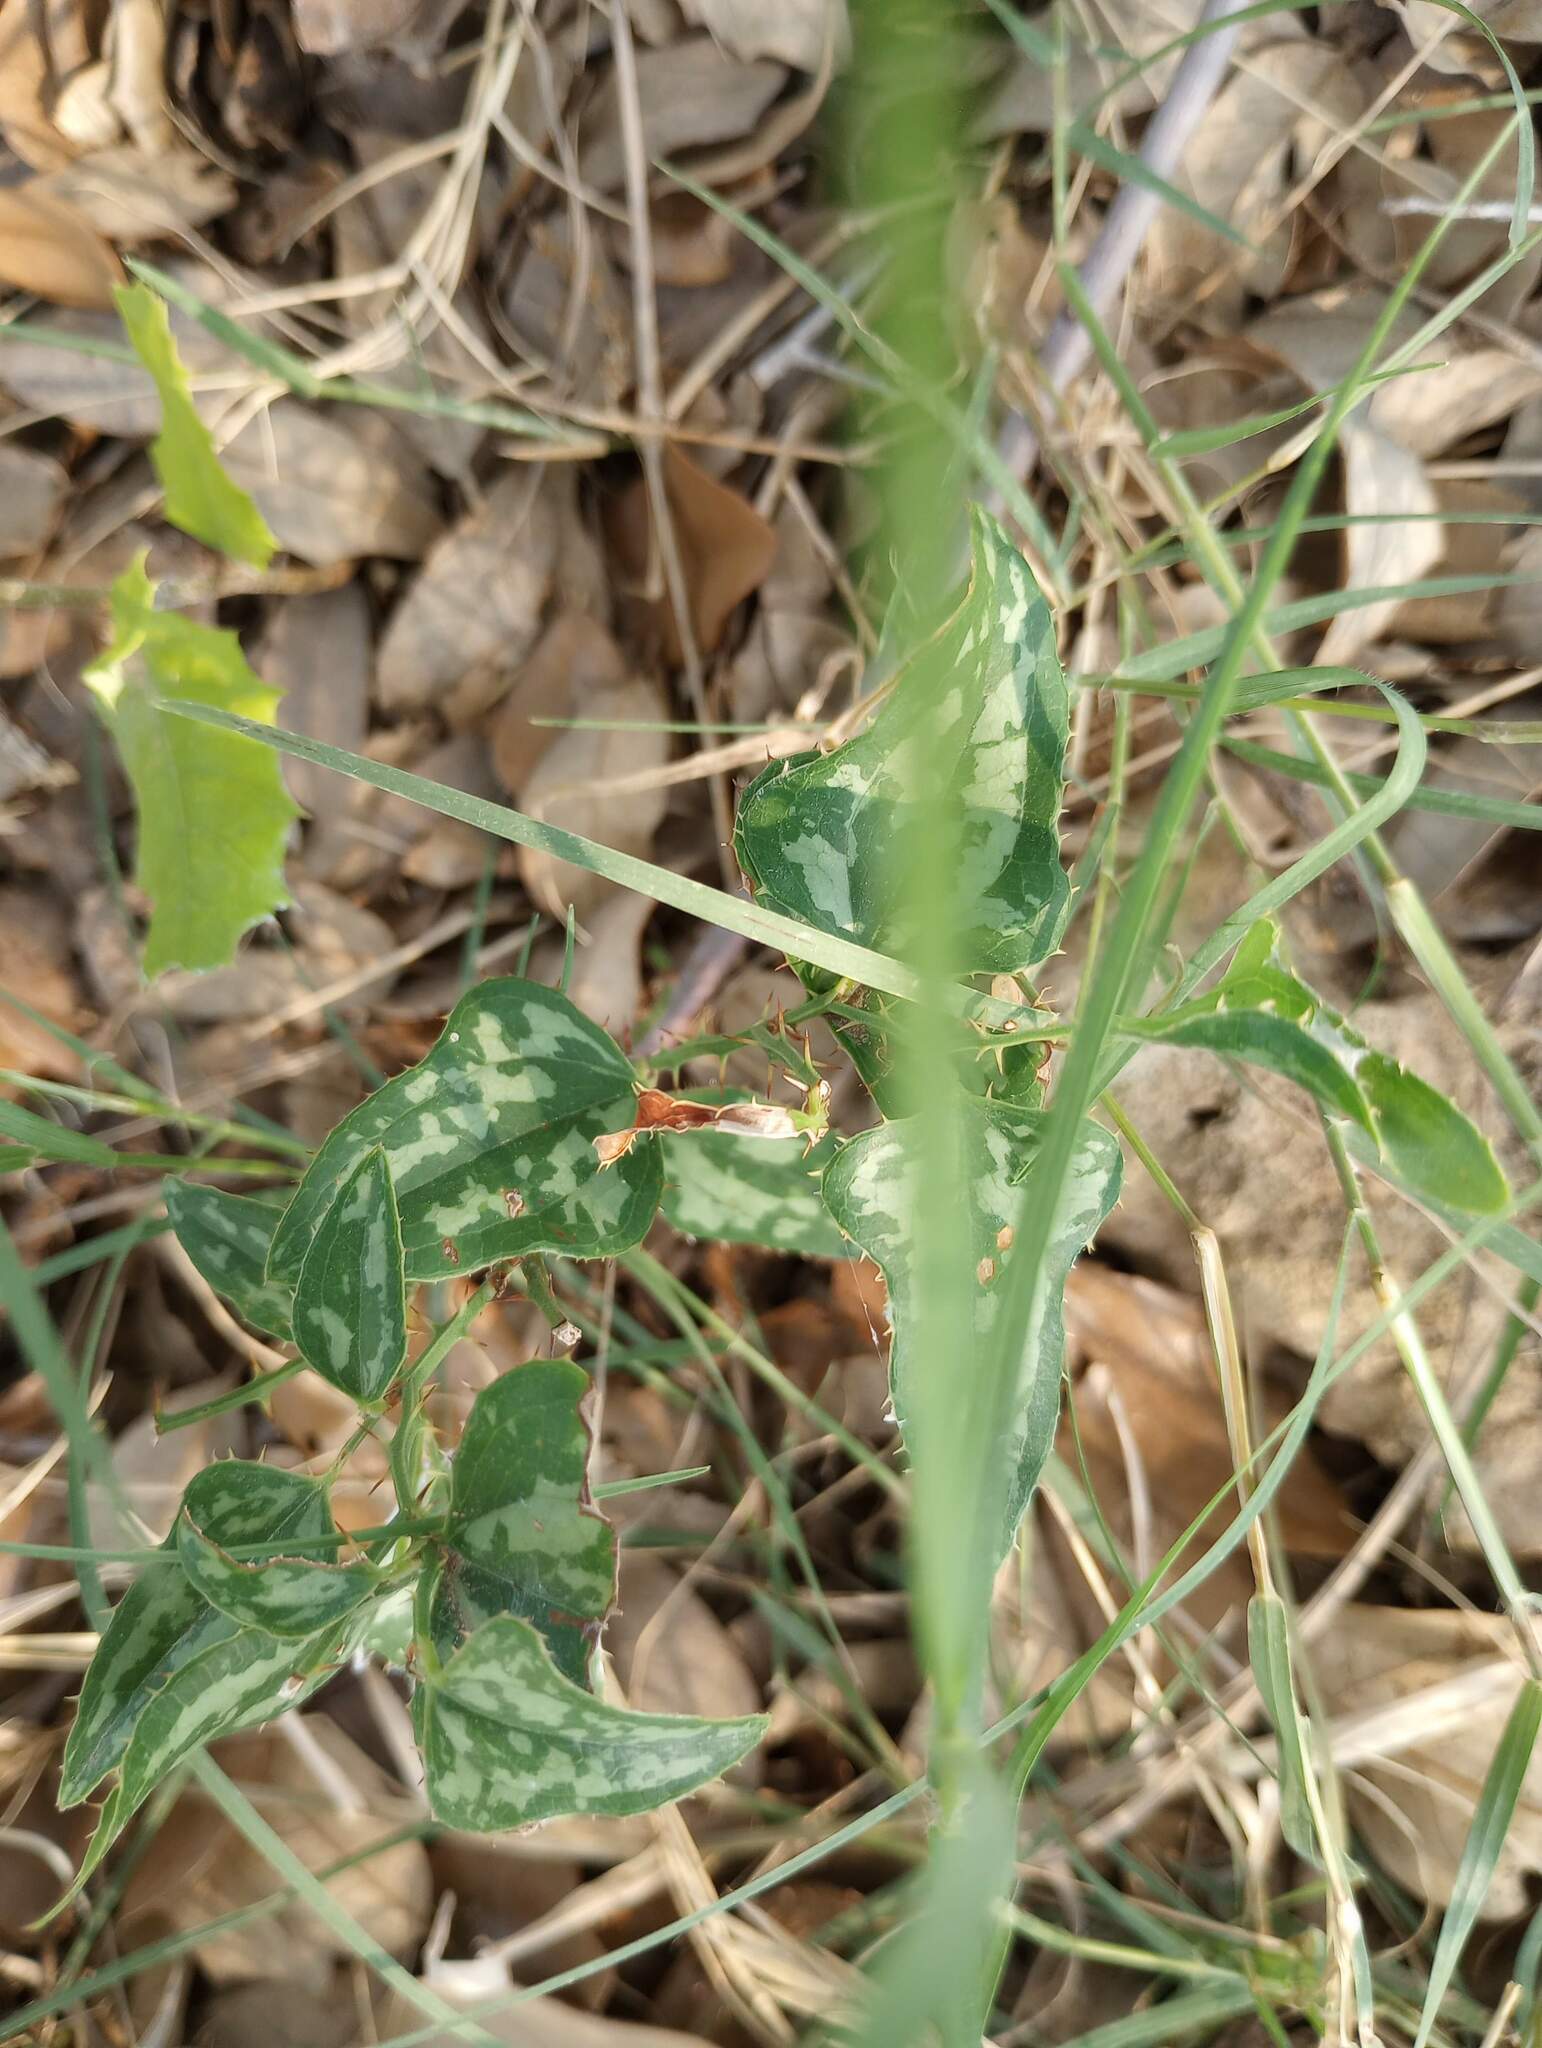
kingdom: Plantae
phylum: Tracheophyta
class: Liliopsida
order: Liliales
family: Smilacaceae
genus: Smilax
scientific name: Smilax bona-nox
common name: Catbrier
